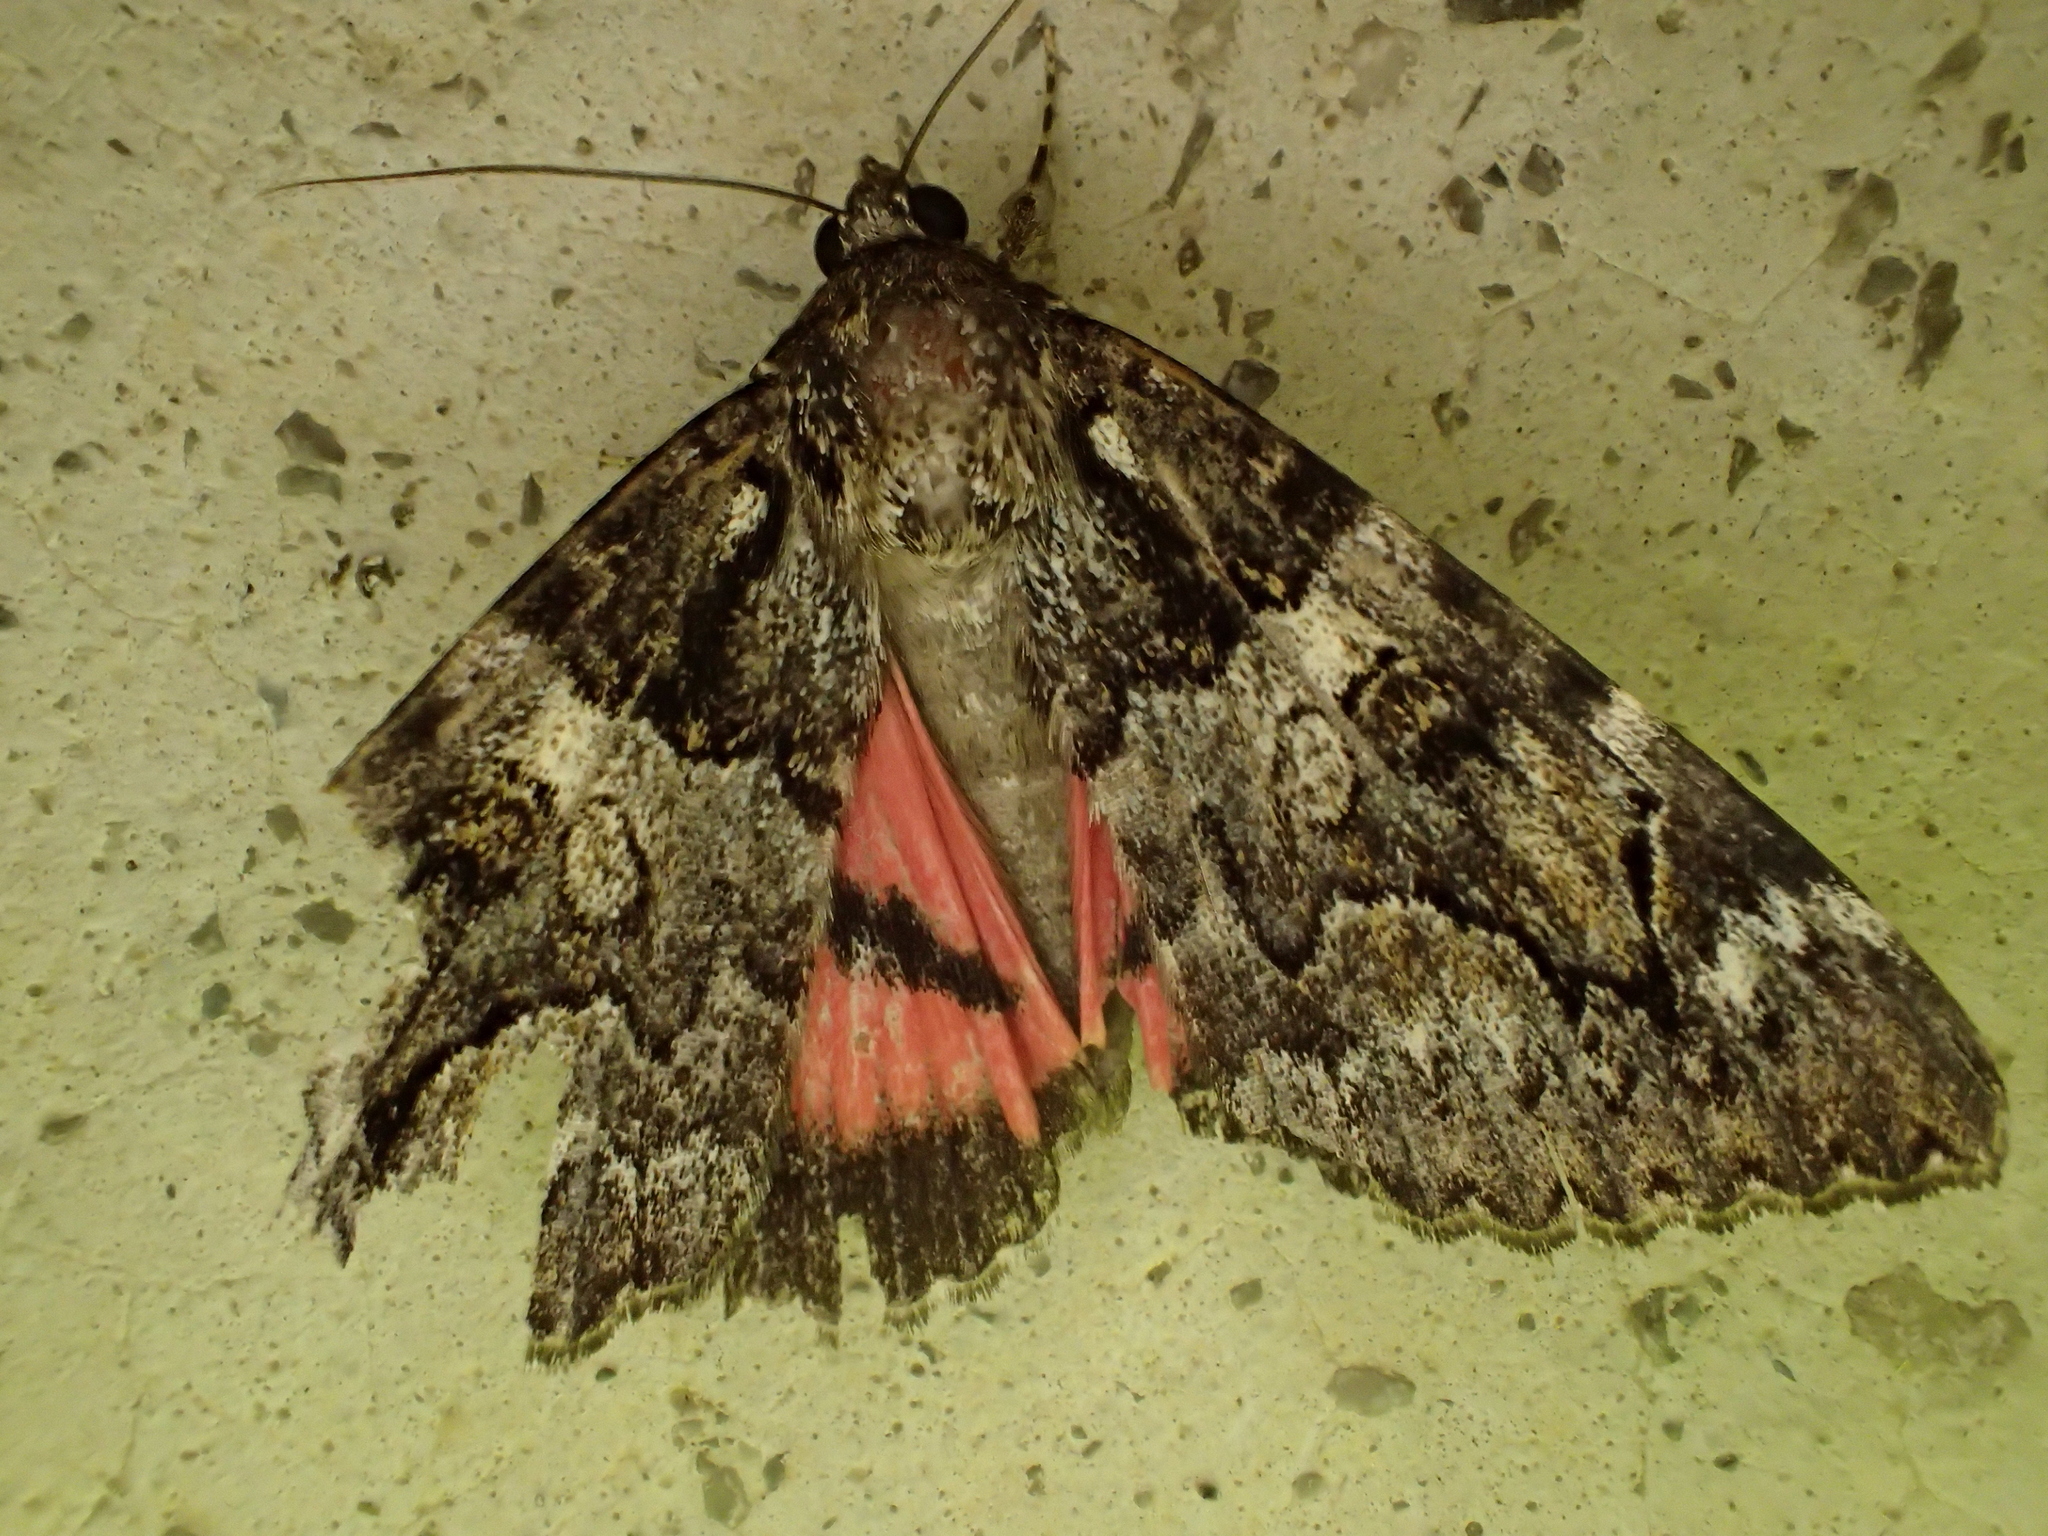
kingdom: Animalia
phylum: Arthropoda
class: Insecta
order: Lepidoptera
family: Erebidae
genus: Catocala
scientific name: Catocala coniuncta
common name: Minsmere crimson underwing
